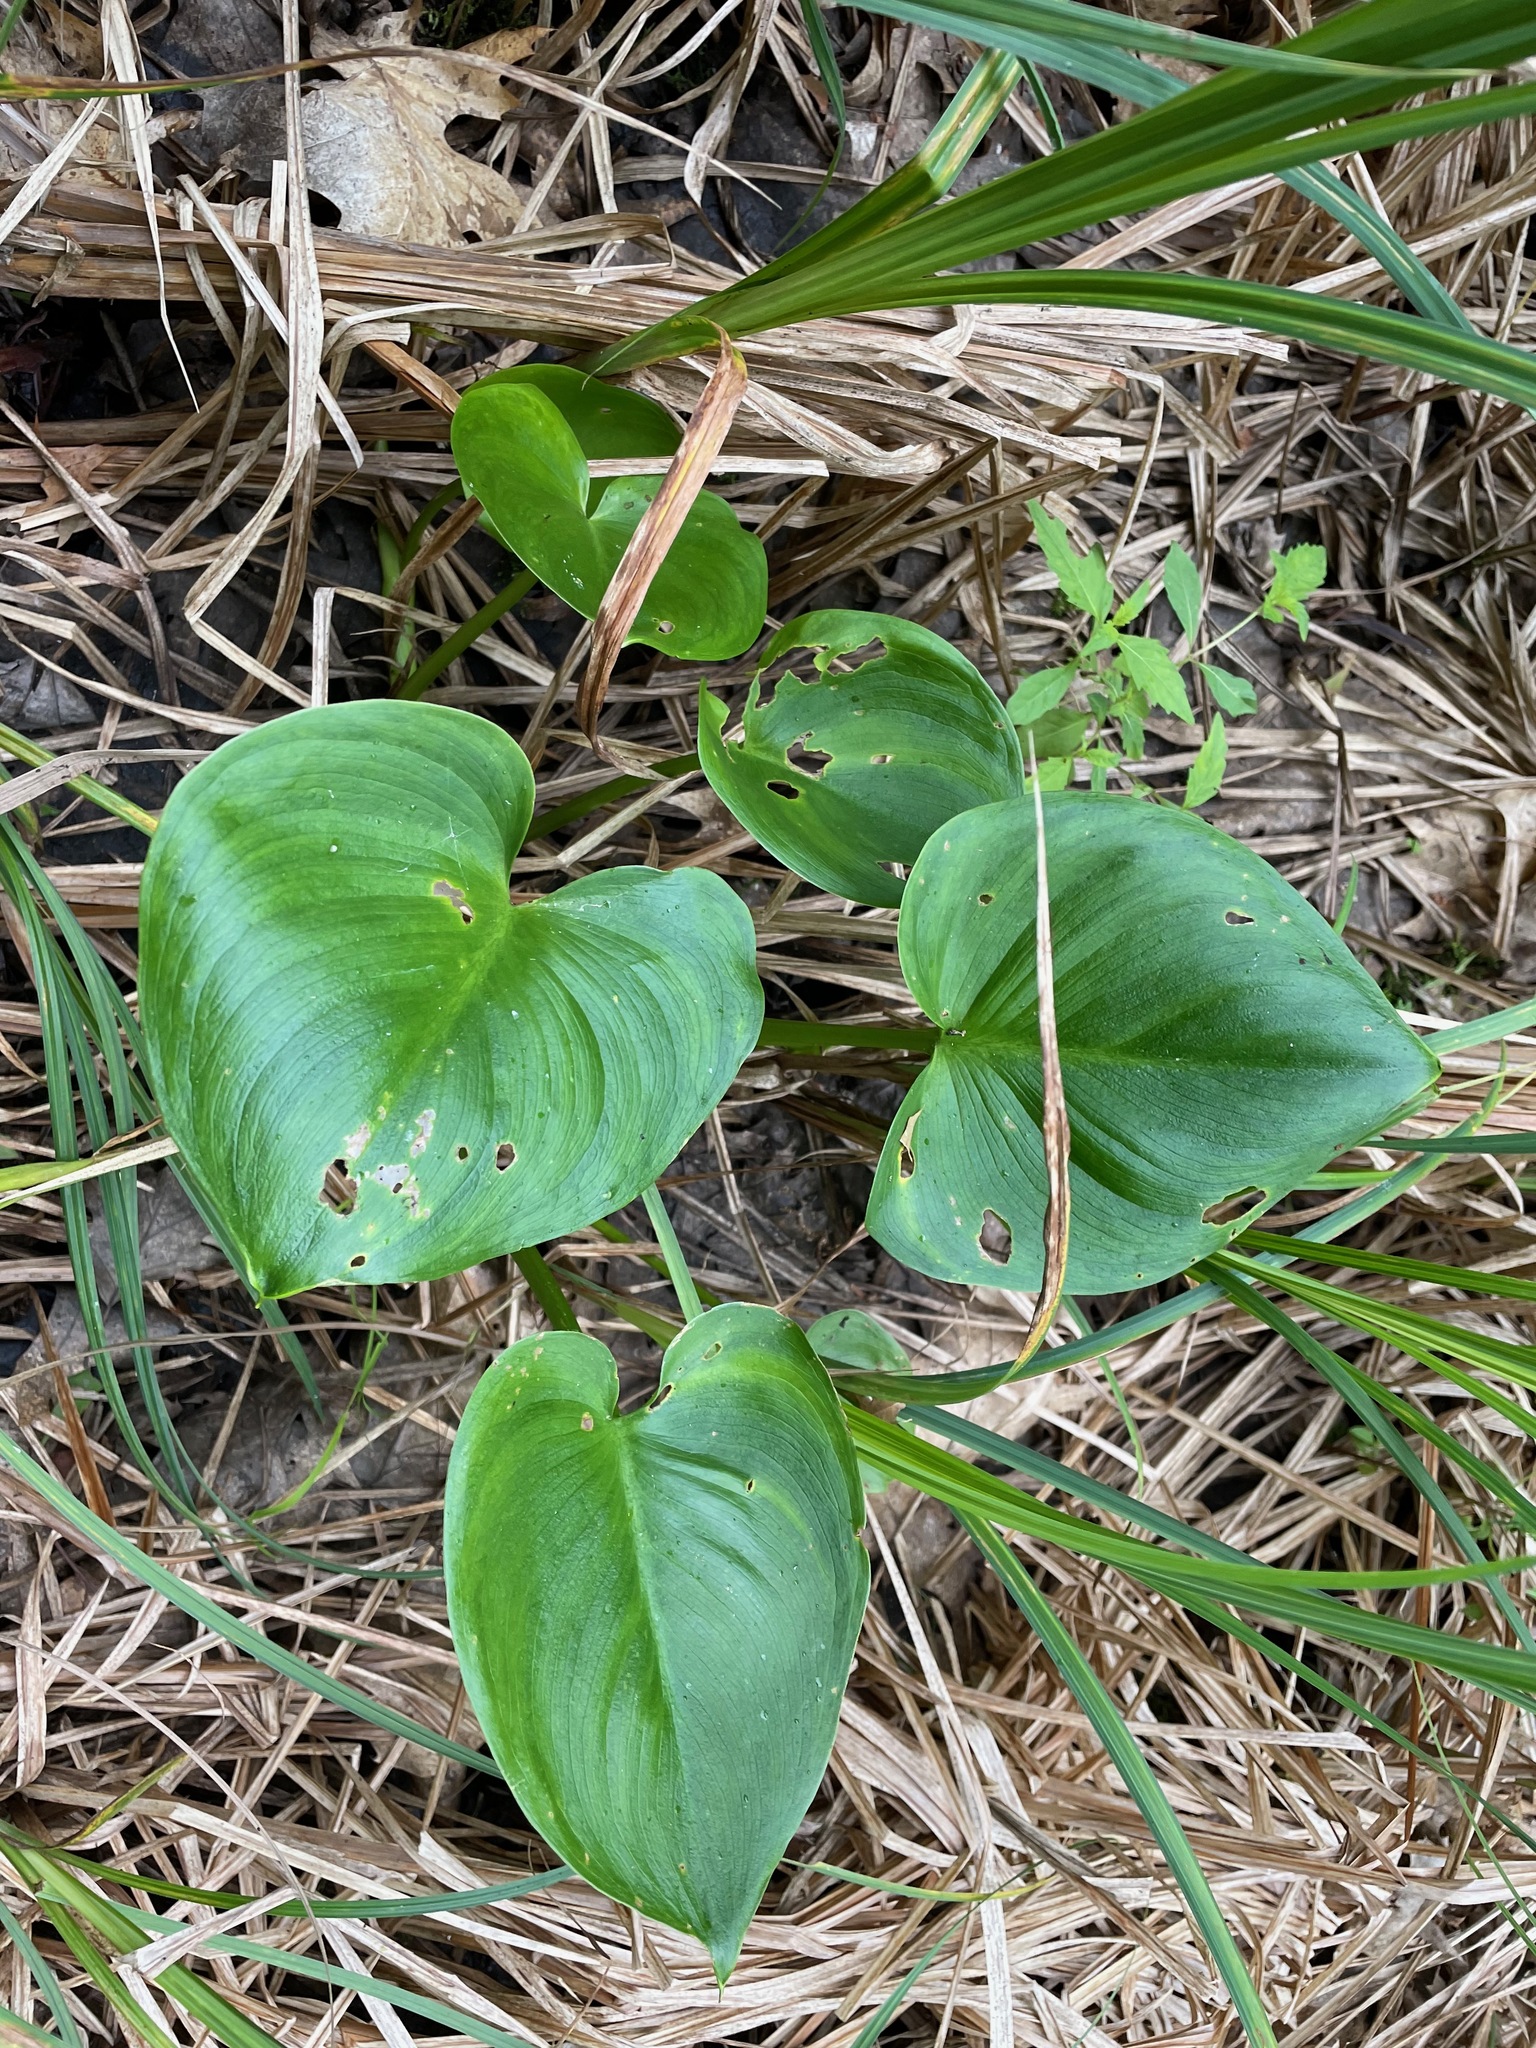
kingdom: Plantae
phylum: Tracheophyta
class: Liliopsida
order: Alismatales
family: Araceae
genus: Calla
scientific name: Calla palustris
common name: Bog arum
